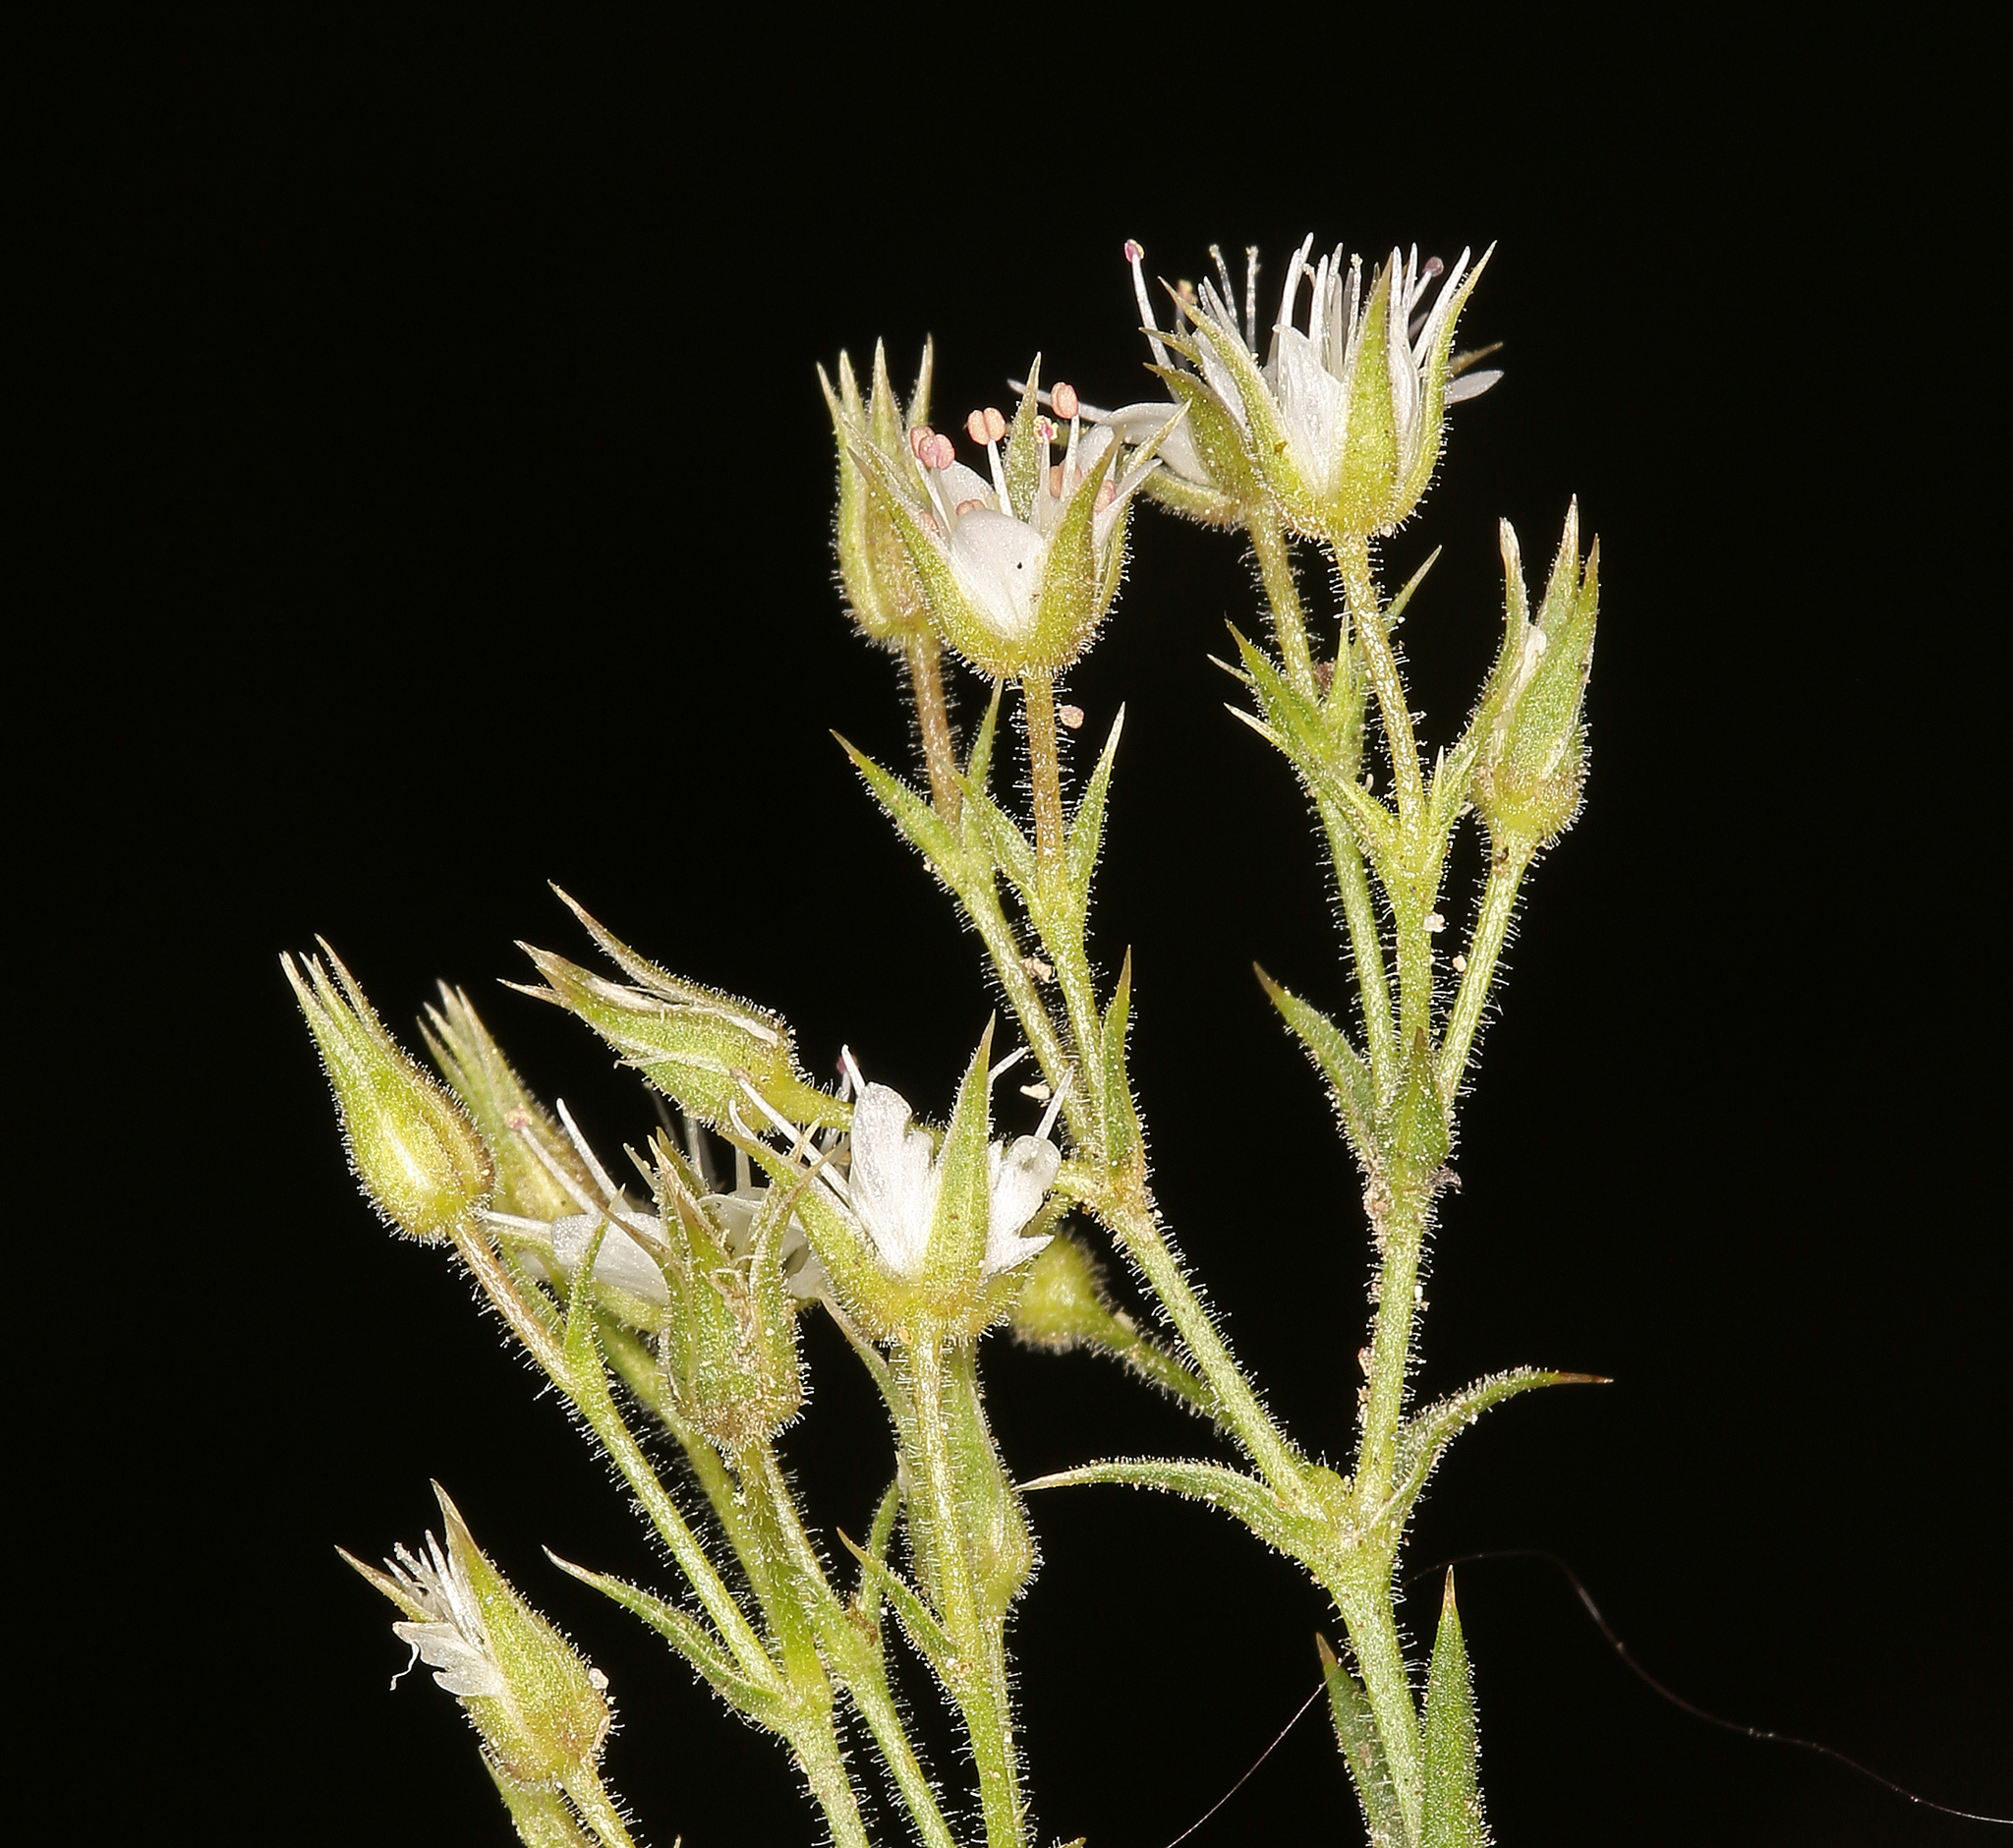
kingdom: Plantae
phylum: Tracheophyta
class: Magnoliopsida
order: Caryophyllales
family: Caryophyllaceae
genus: Sabulina
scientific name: Sabulina nuttallii
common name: Nuttall's stitchwort
